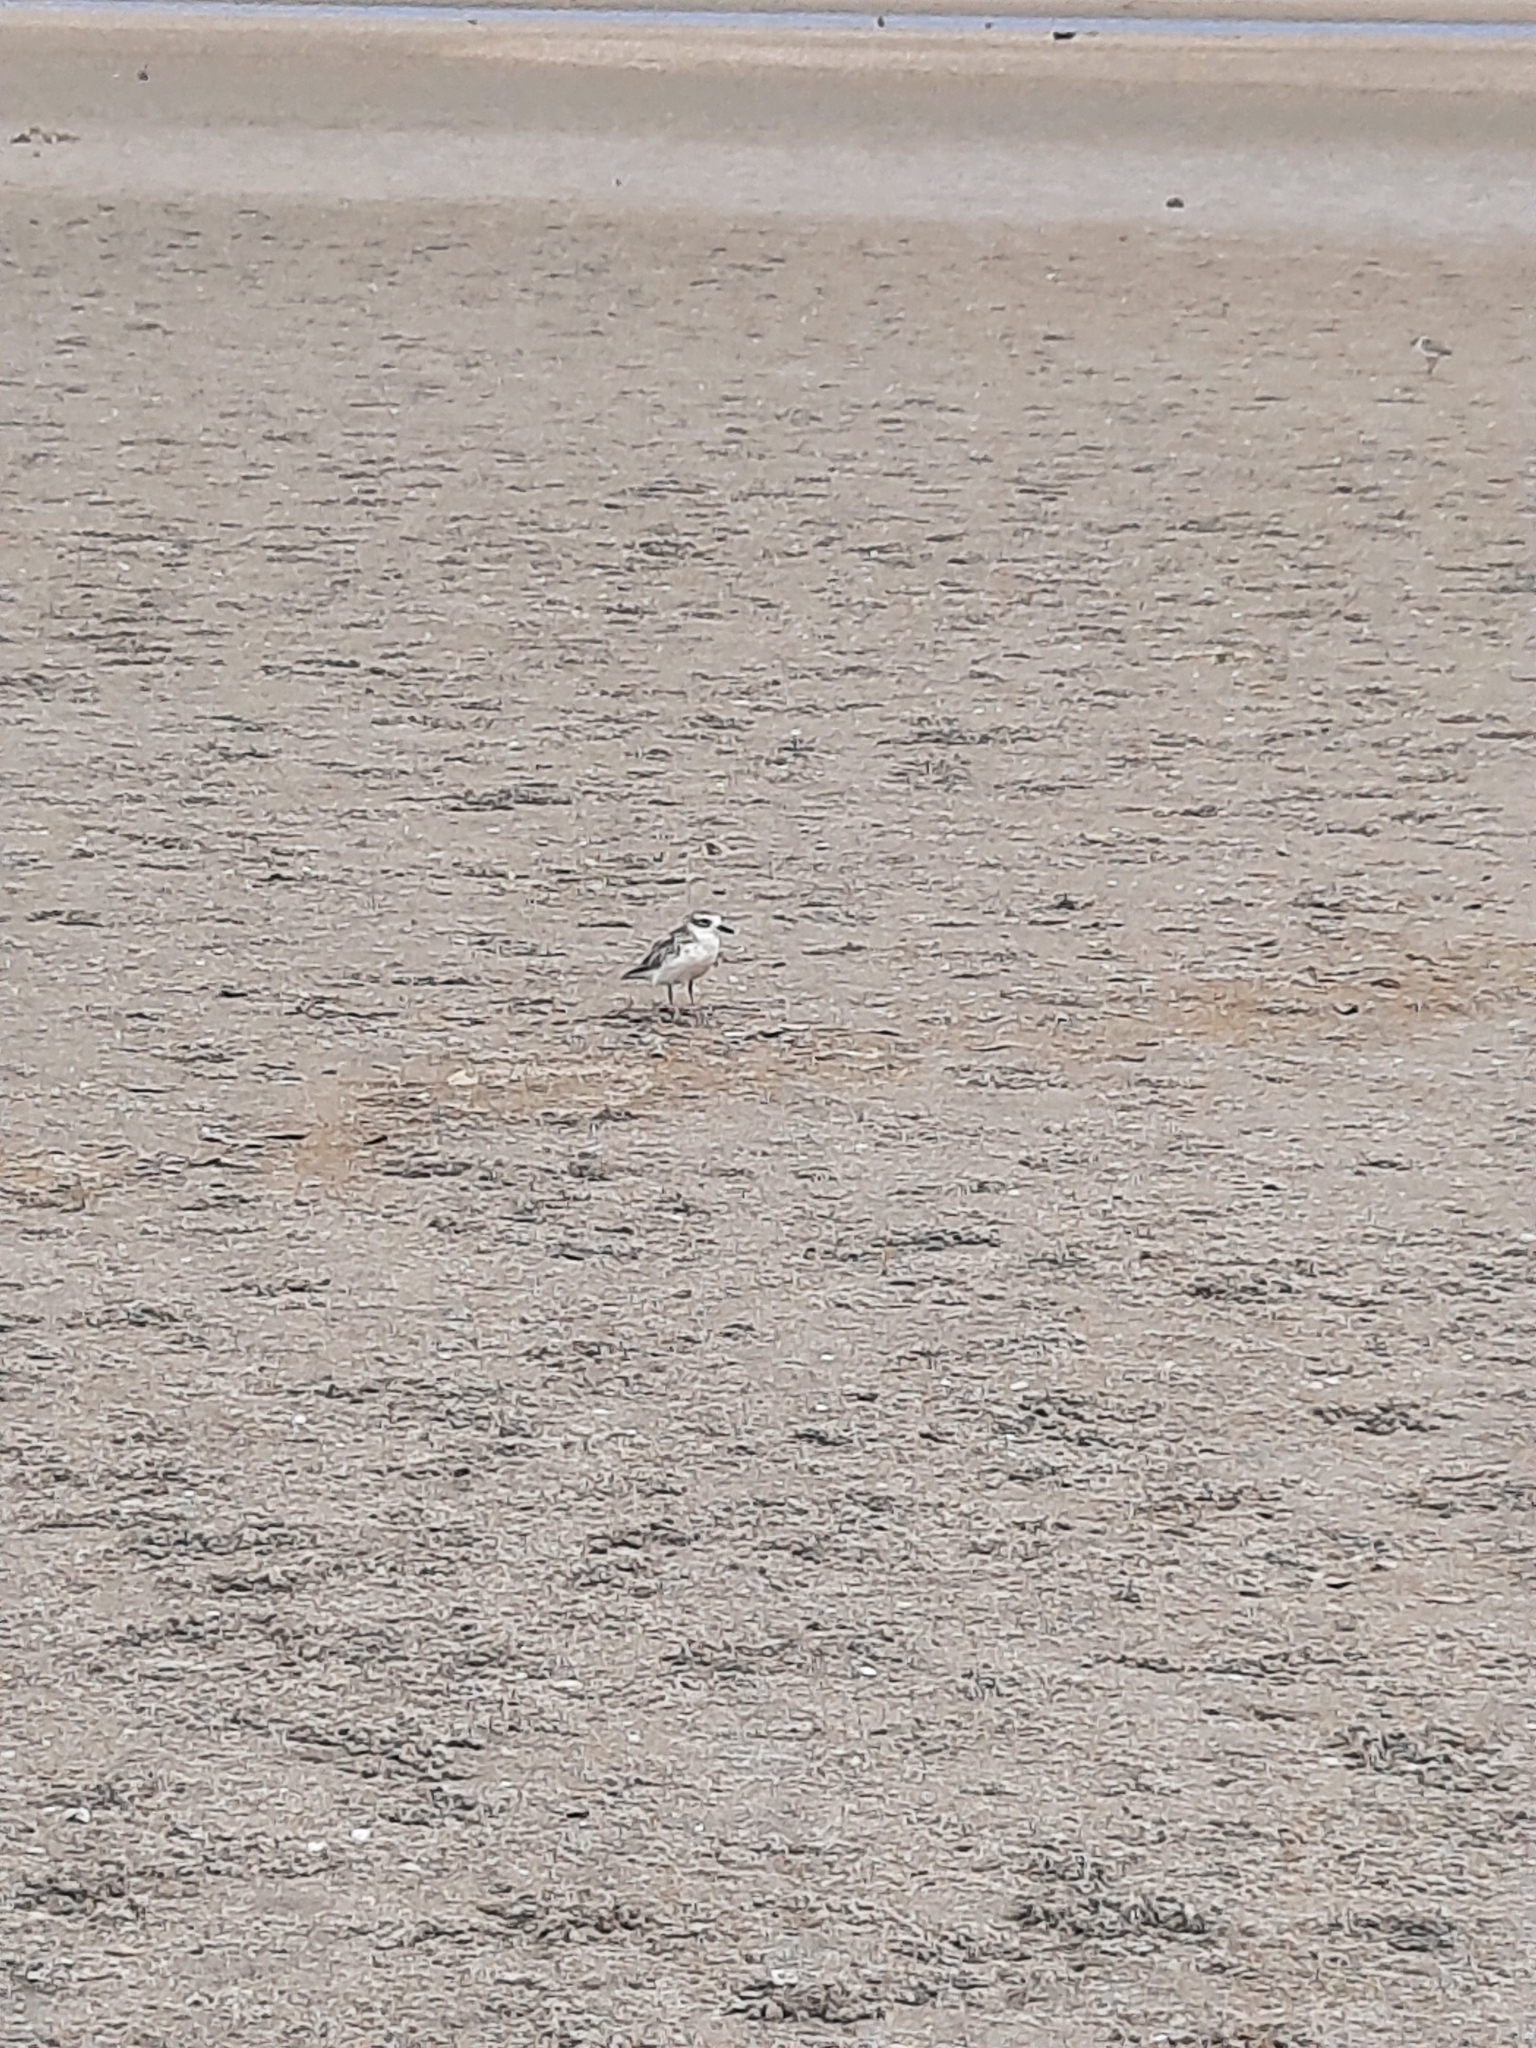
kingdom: Animalia
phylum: Chordata
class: Aves
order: Charadriiformes
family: Charadriidae
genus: Anarhynchus
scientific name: Anarhynchus
